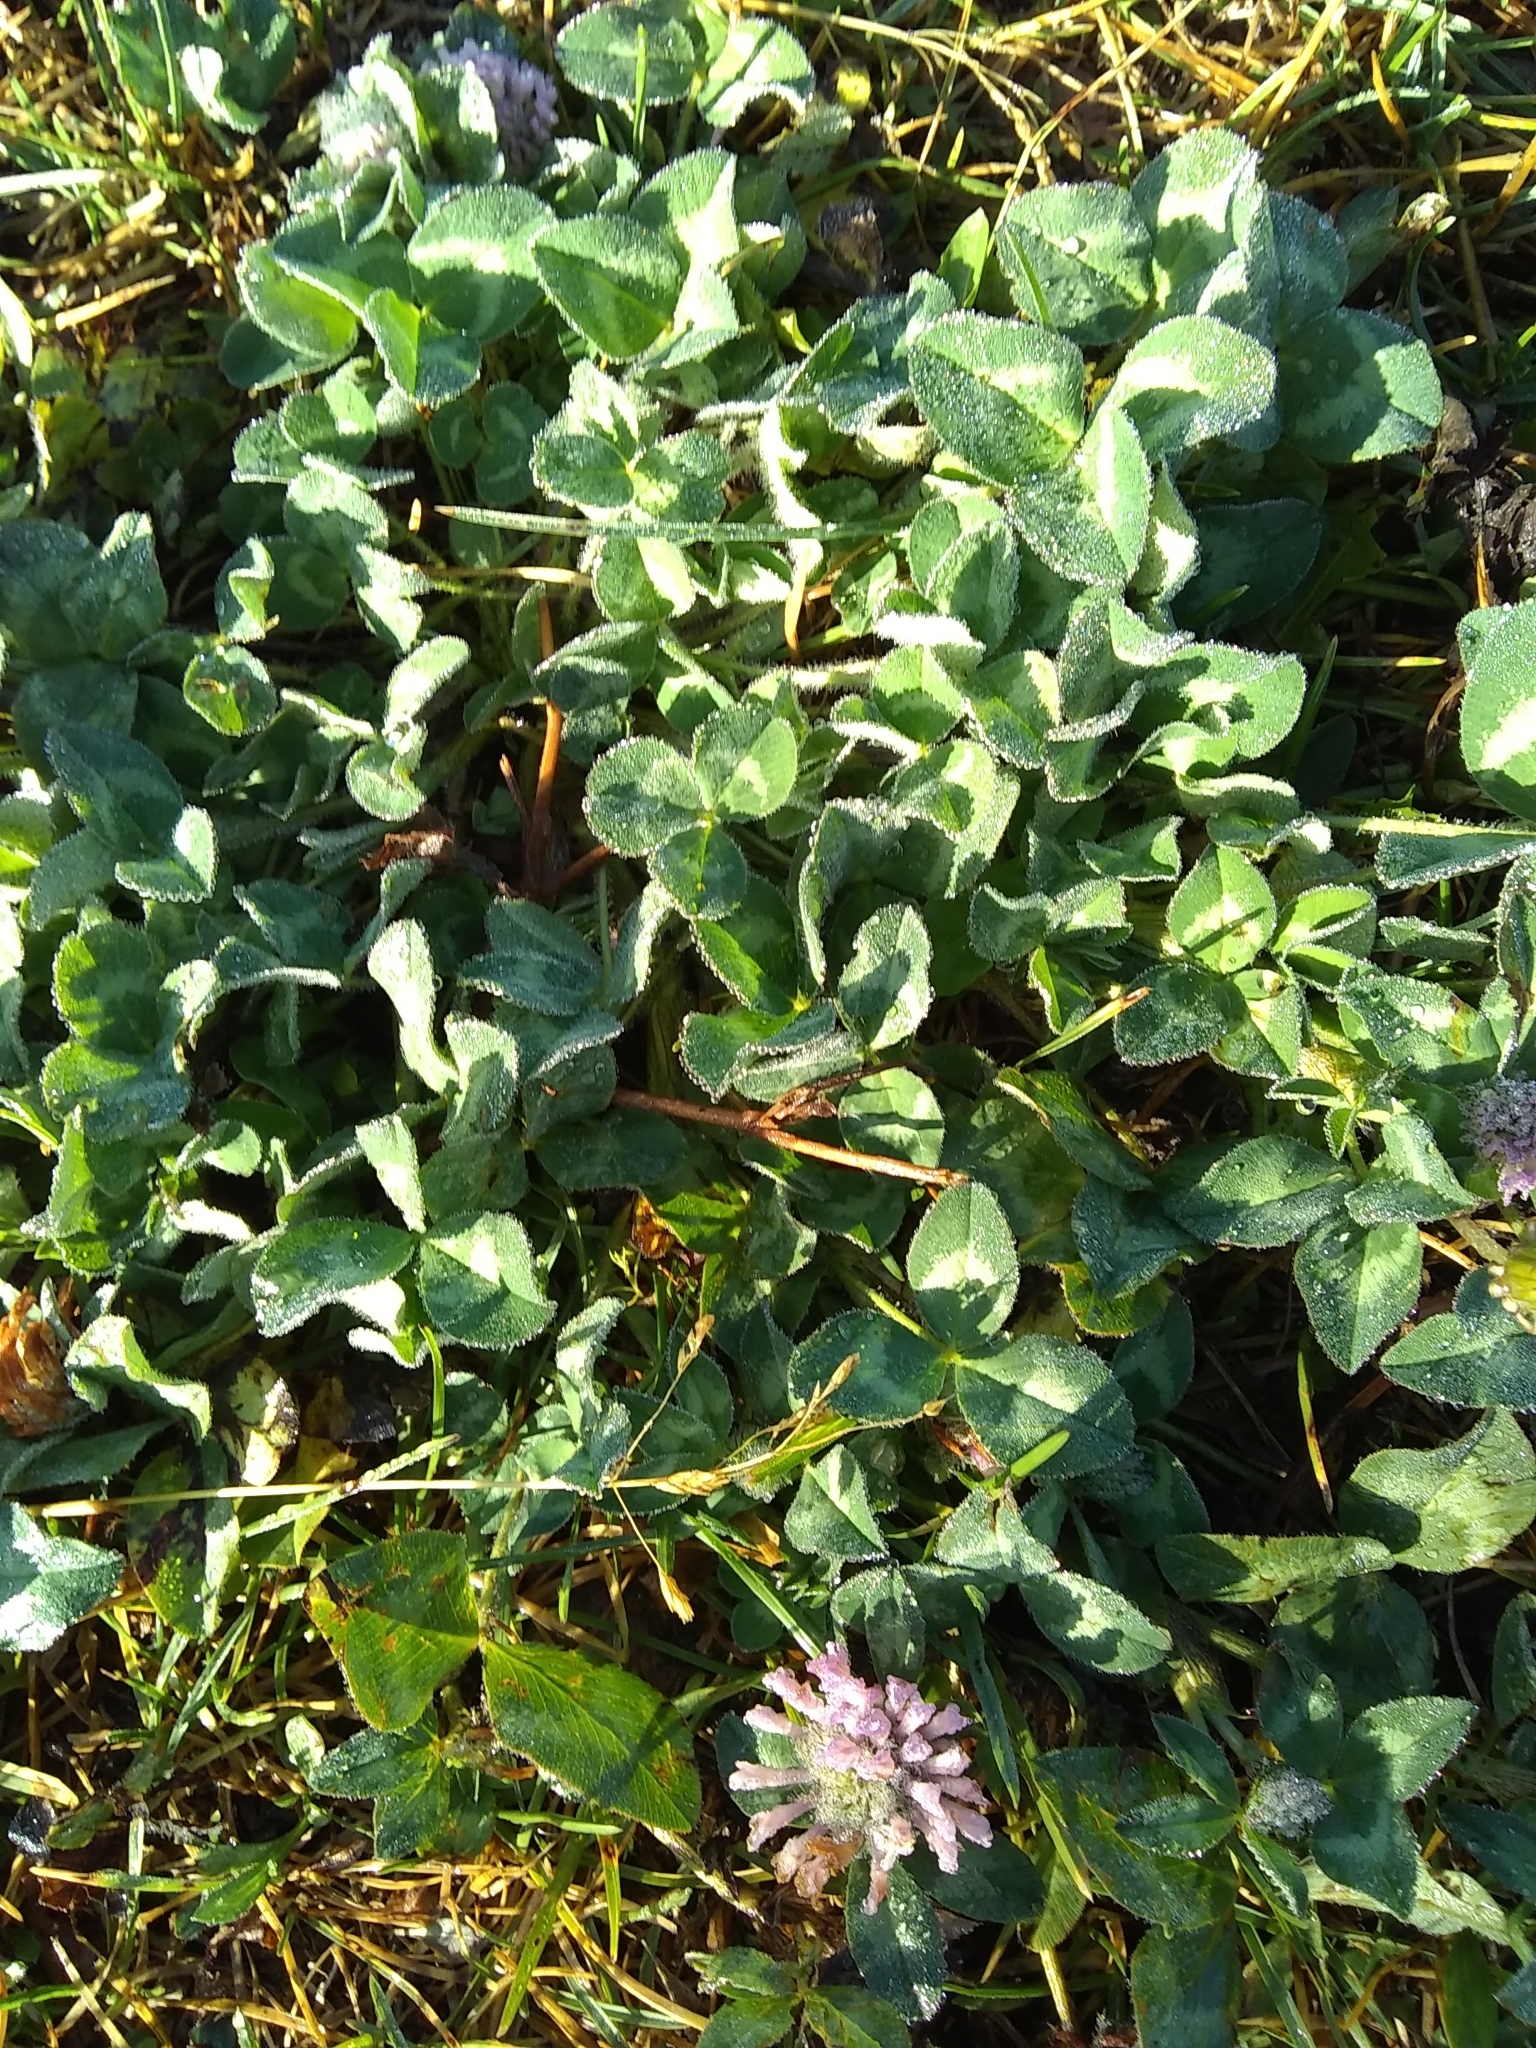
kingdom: Plantae
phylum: Tracheophyta
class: Magnoliopsida
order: Fabales
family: Fabaceae
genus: Trifolium
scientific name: Trifolium pratense
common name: Red clover
